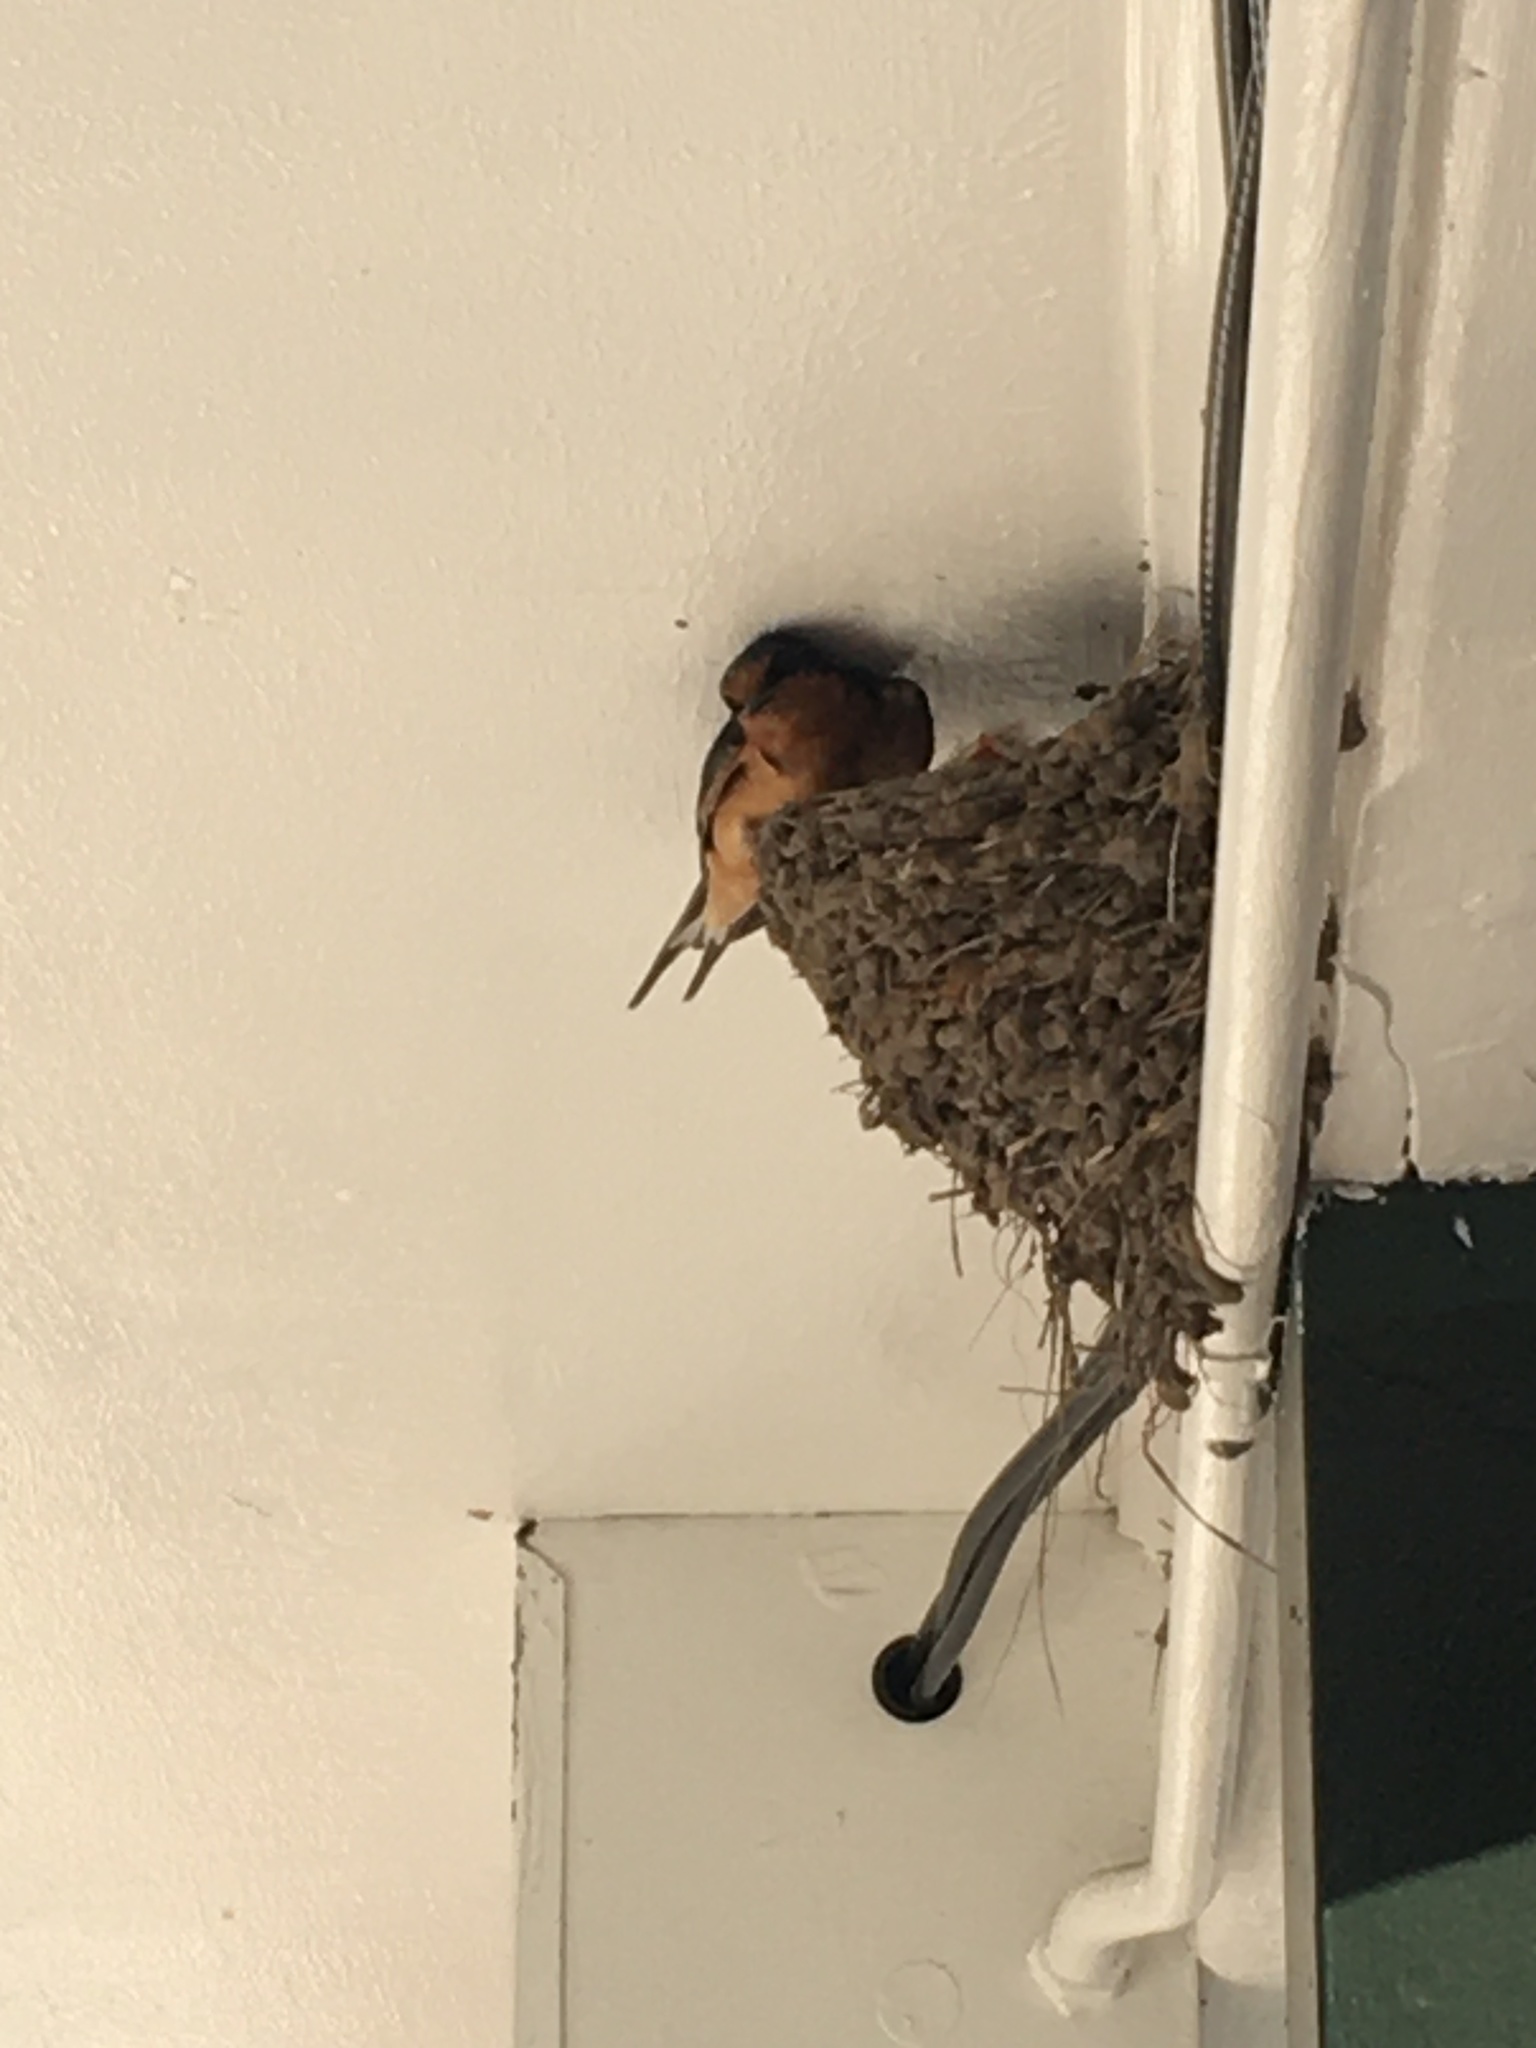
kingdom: Animalia
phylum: Chordata
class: Aves
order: Passeriformes
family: Hirundinidae
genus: Hirundo
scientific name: Hirundo rustica
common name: Barn swallow
